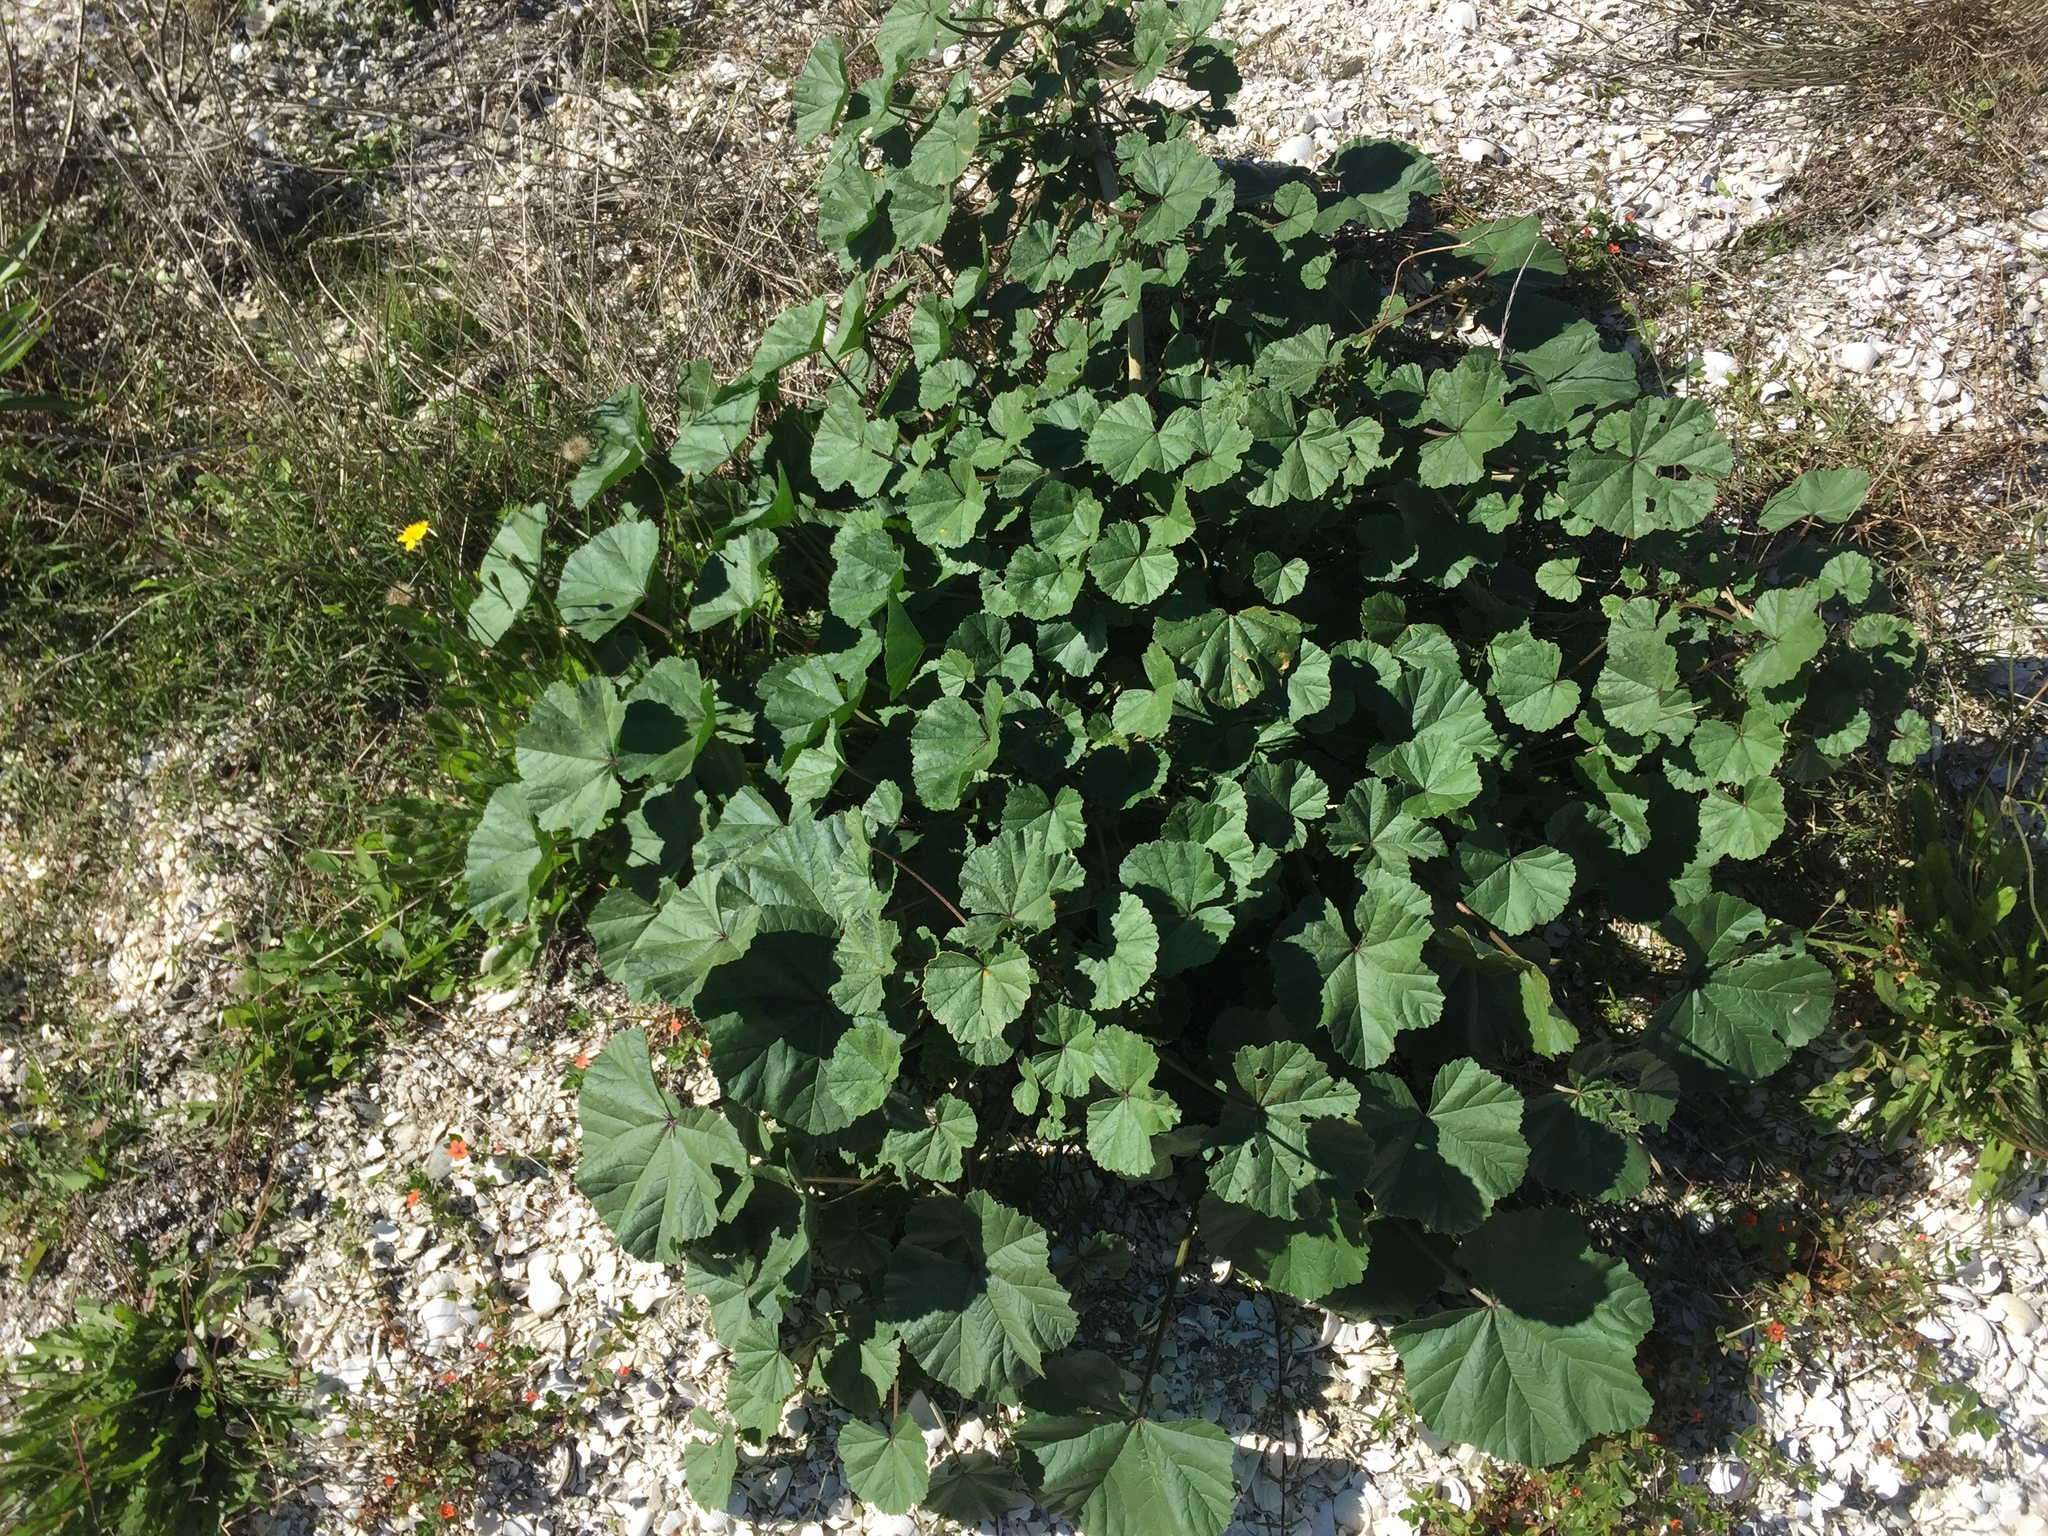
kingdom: Plantae
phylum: Tracheophyta
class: Magnoliopsida
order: Malvales
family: Malvaceae
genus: Malva
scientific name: Malva sylvestris
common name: Common mallow
